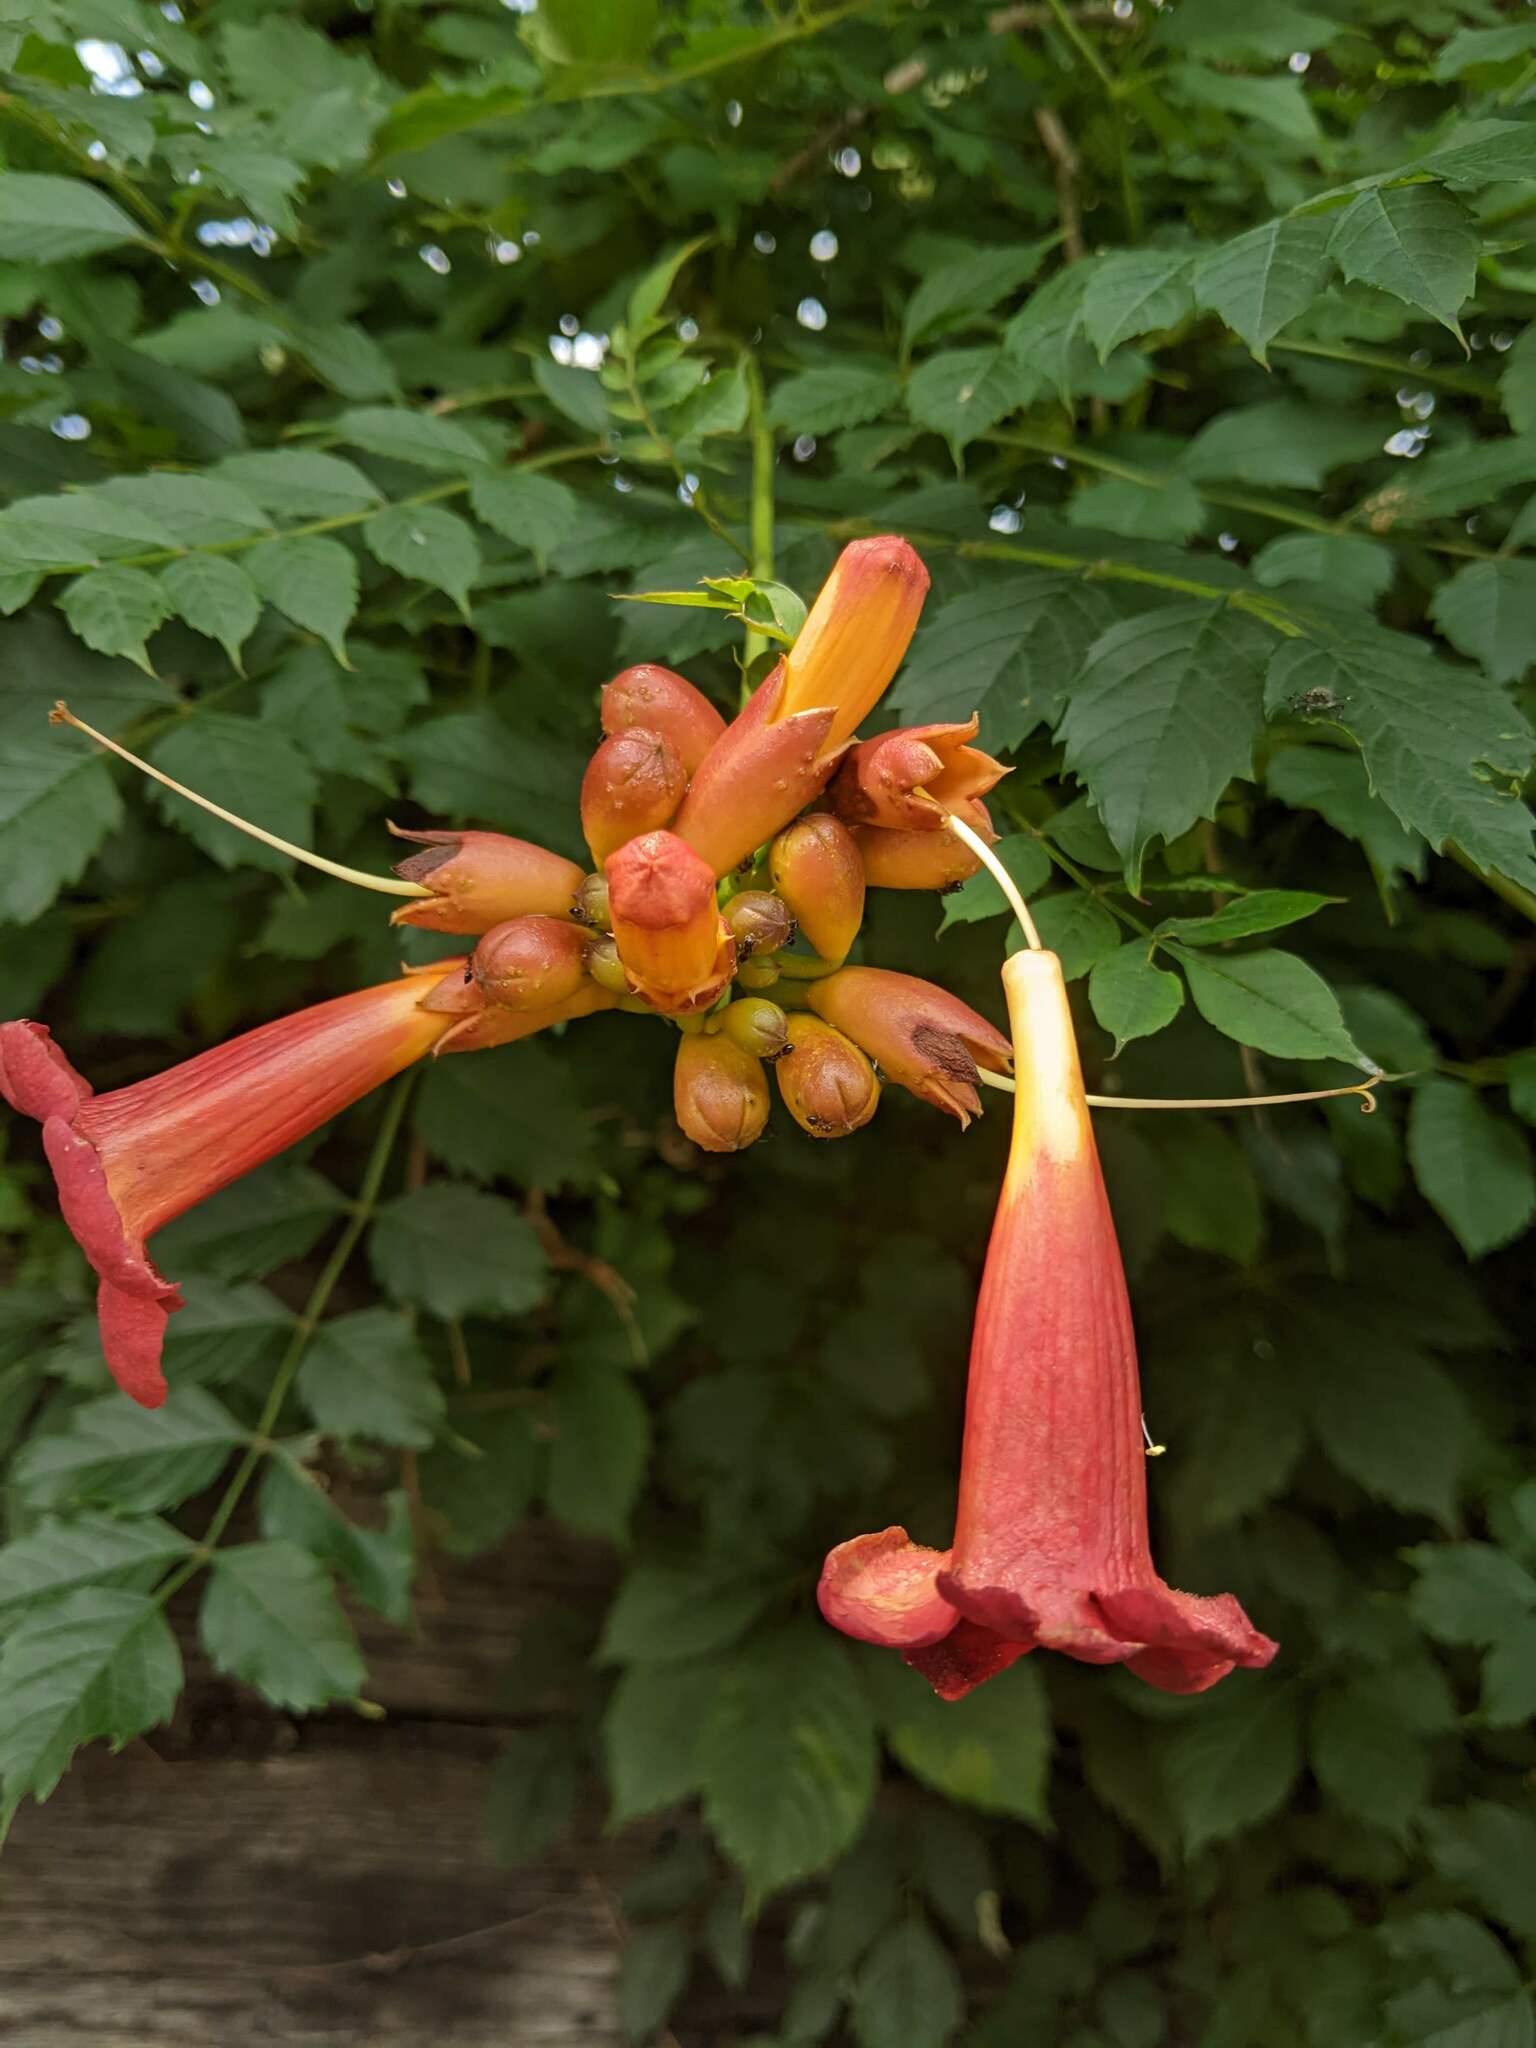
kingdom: Plantae
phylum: Tracheophyta
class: Magnoliopsida
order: Lamiales
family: Bignoniaceae
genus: Campsis
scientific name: Campsis radicans
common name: Trumpet-creeper
